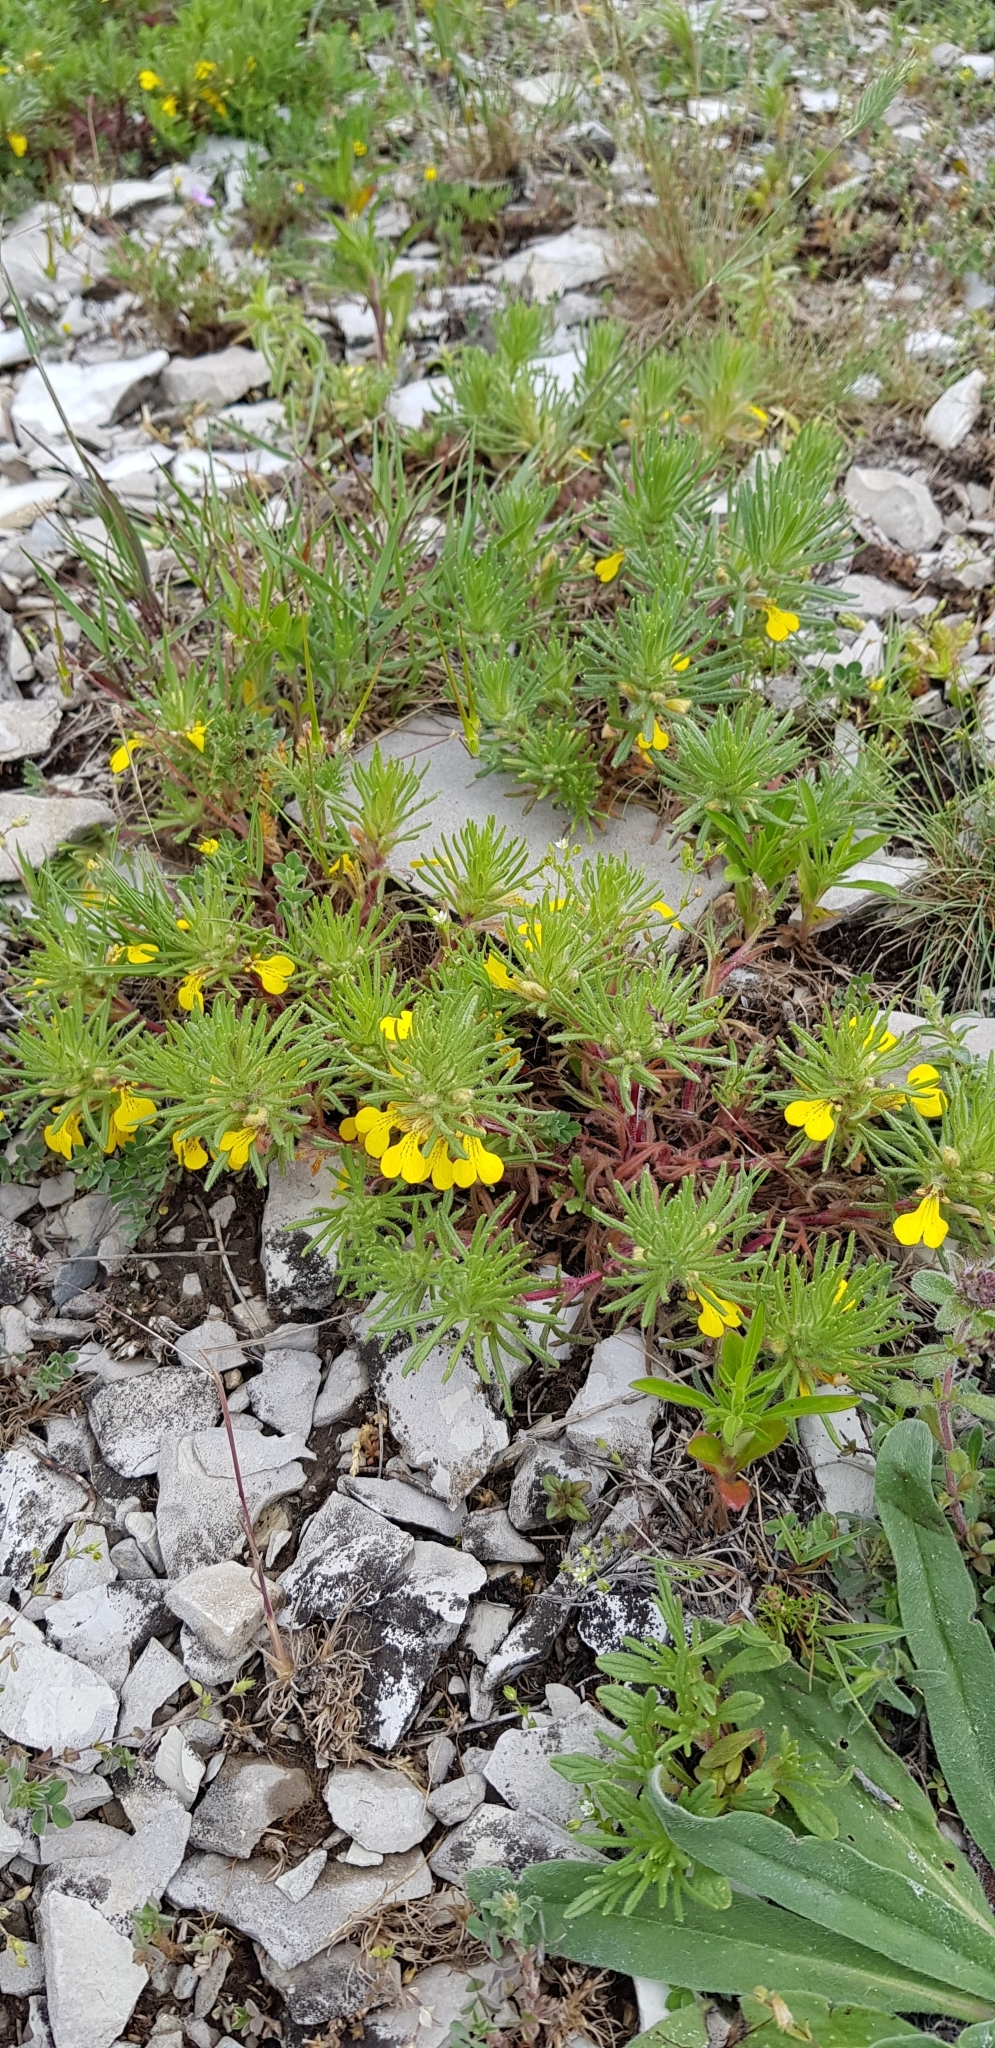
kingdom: Plantae
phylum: Tracheophyta
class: Magnoliopsida
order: Lamiales
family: Lamiaceae
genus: Ajuga
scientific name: Ajuga chamaepitys
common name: Ground-pine
